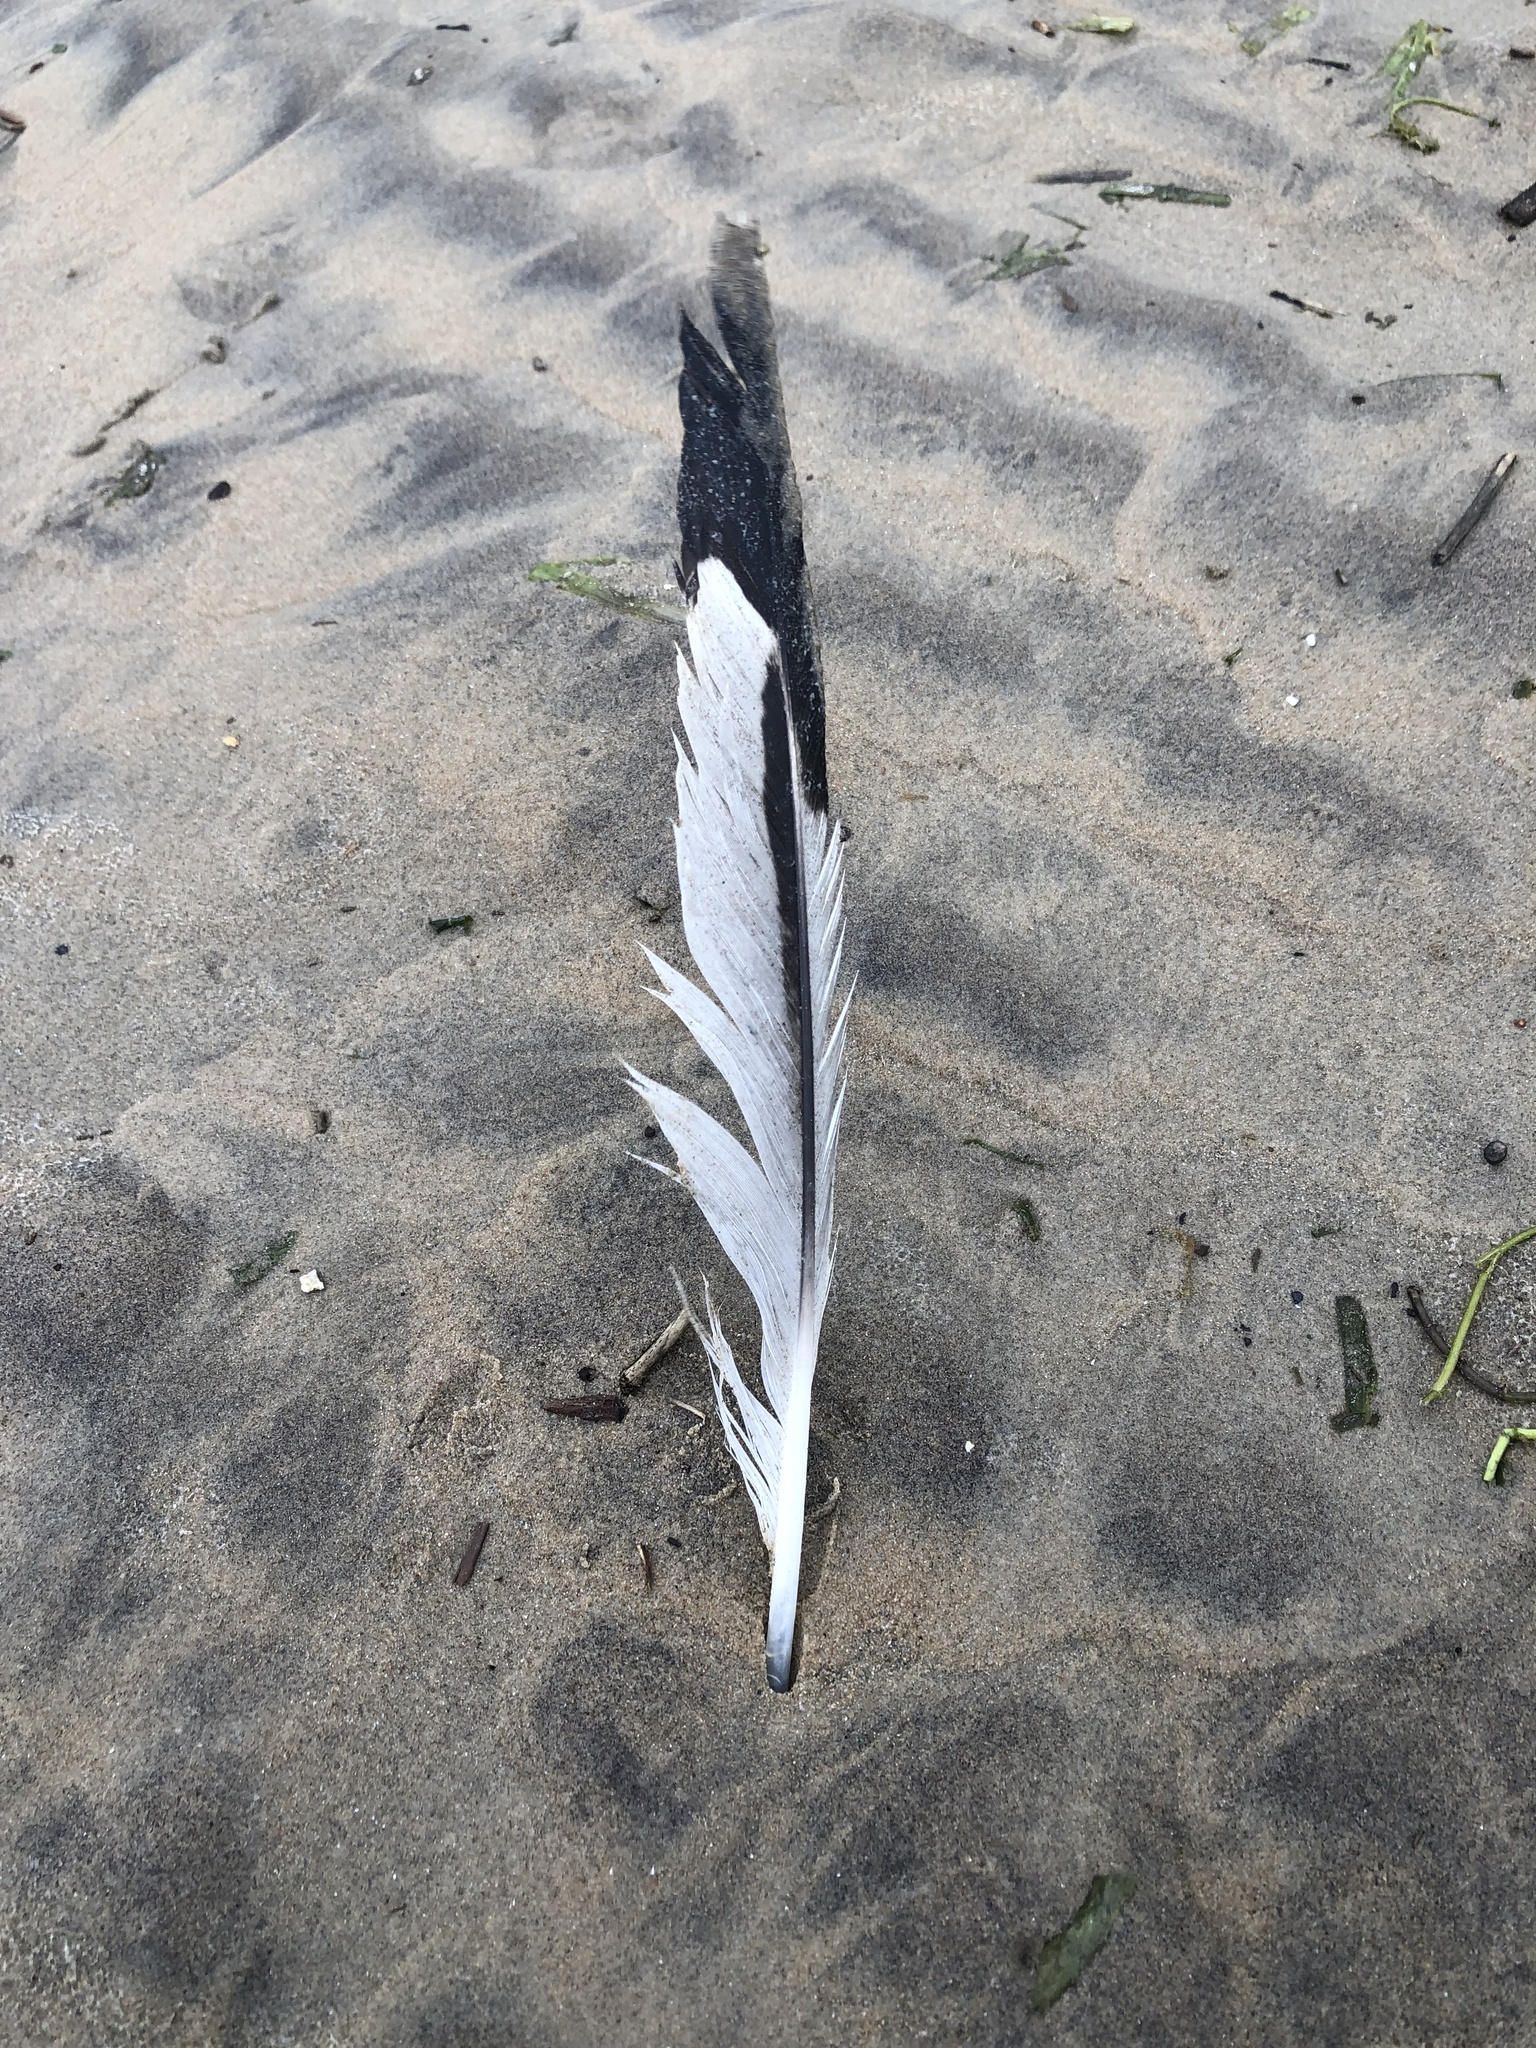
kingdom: Animalia
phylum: Chordata
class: Aves
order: Charadriiformes
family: Laridae
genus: Larus
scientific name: Larus delawarensis
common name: Ring-billed gull
